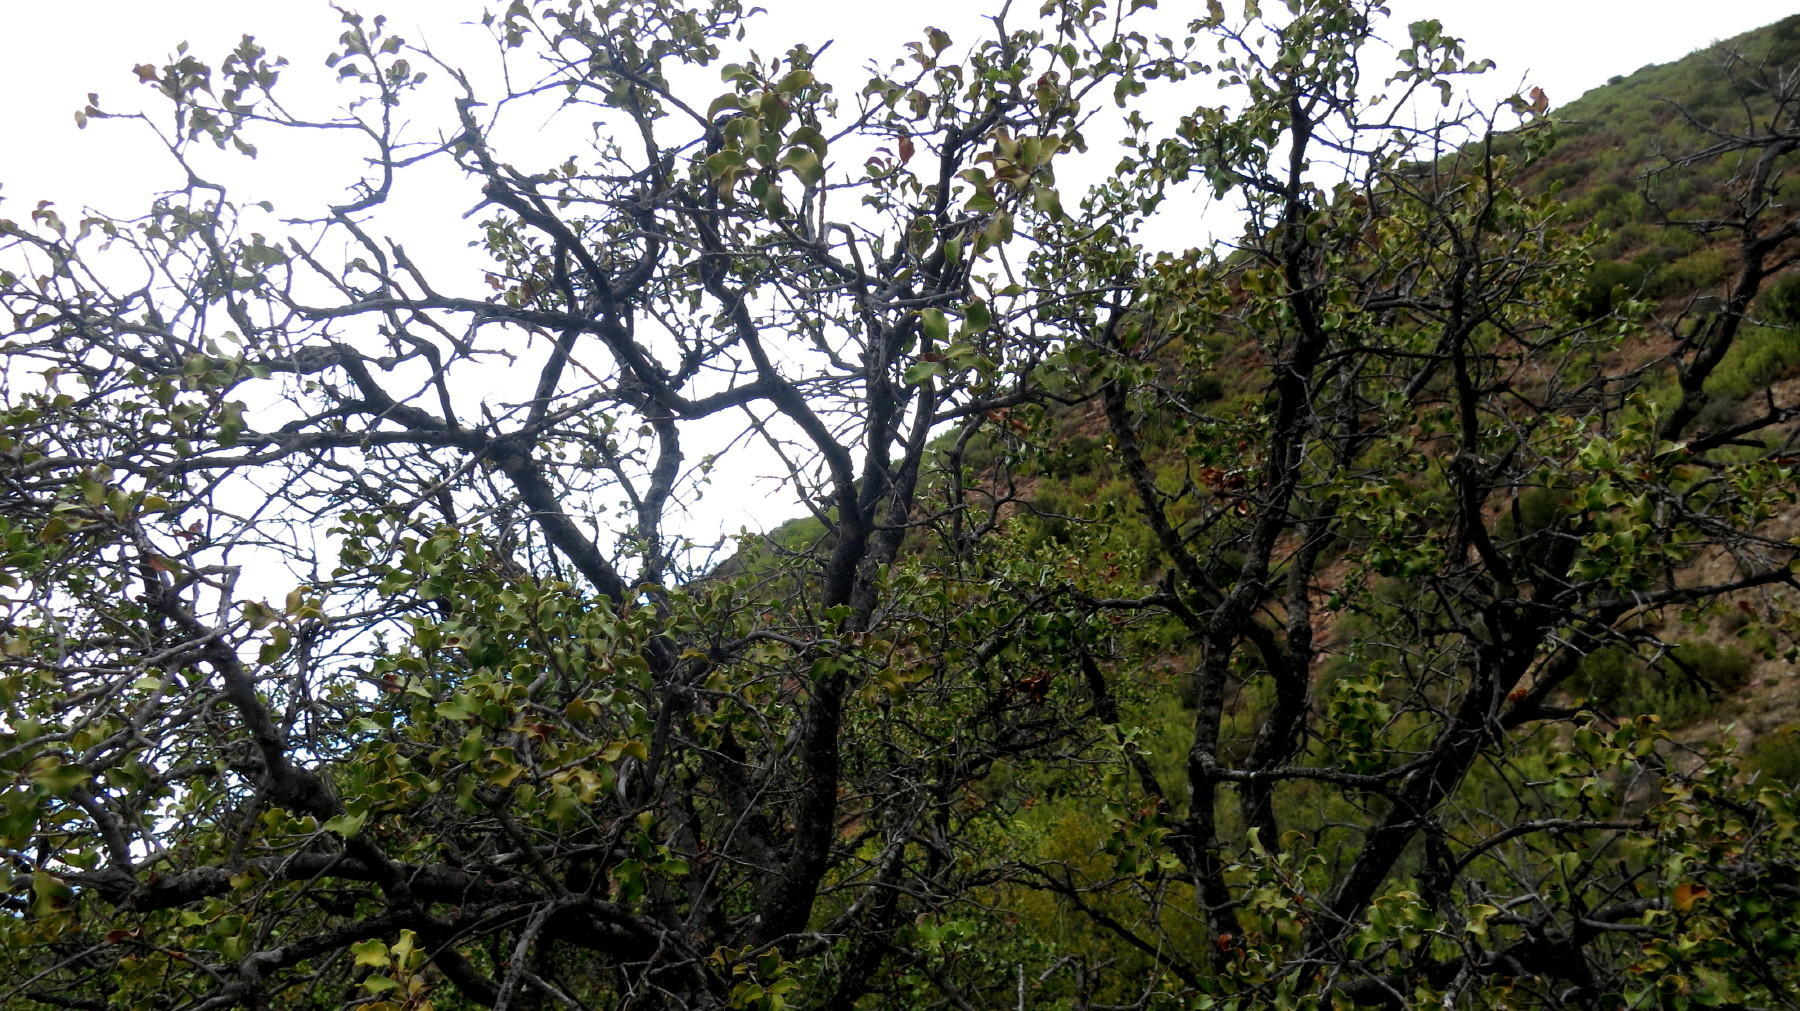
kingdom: Plantae
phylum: Tracheophyta
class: Magnoliopsida
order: Ericales
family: Ebenaceae
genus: Euclea
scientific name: Euclea undulata
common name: Small-leaved guarri
